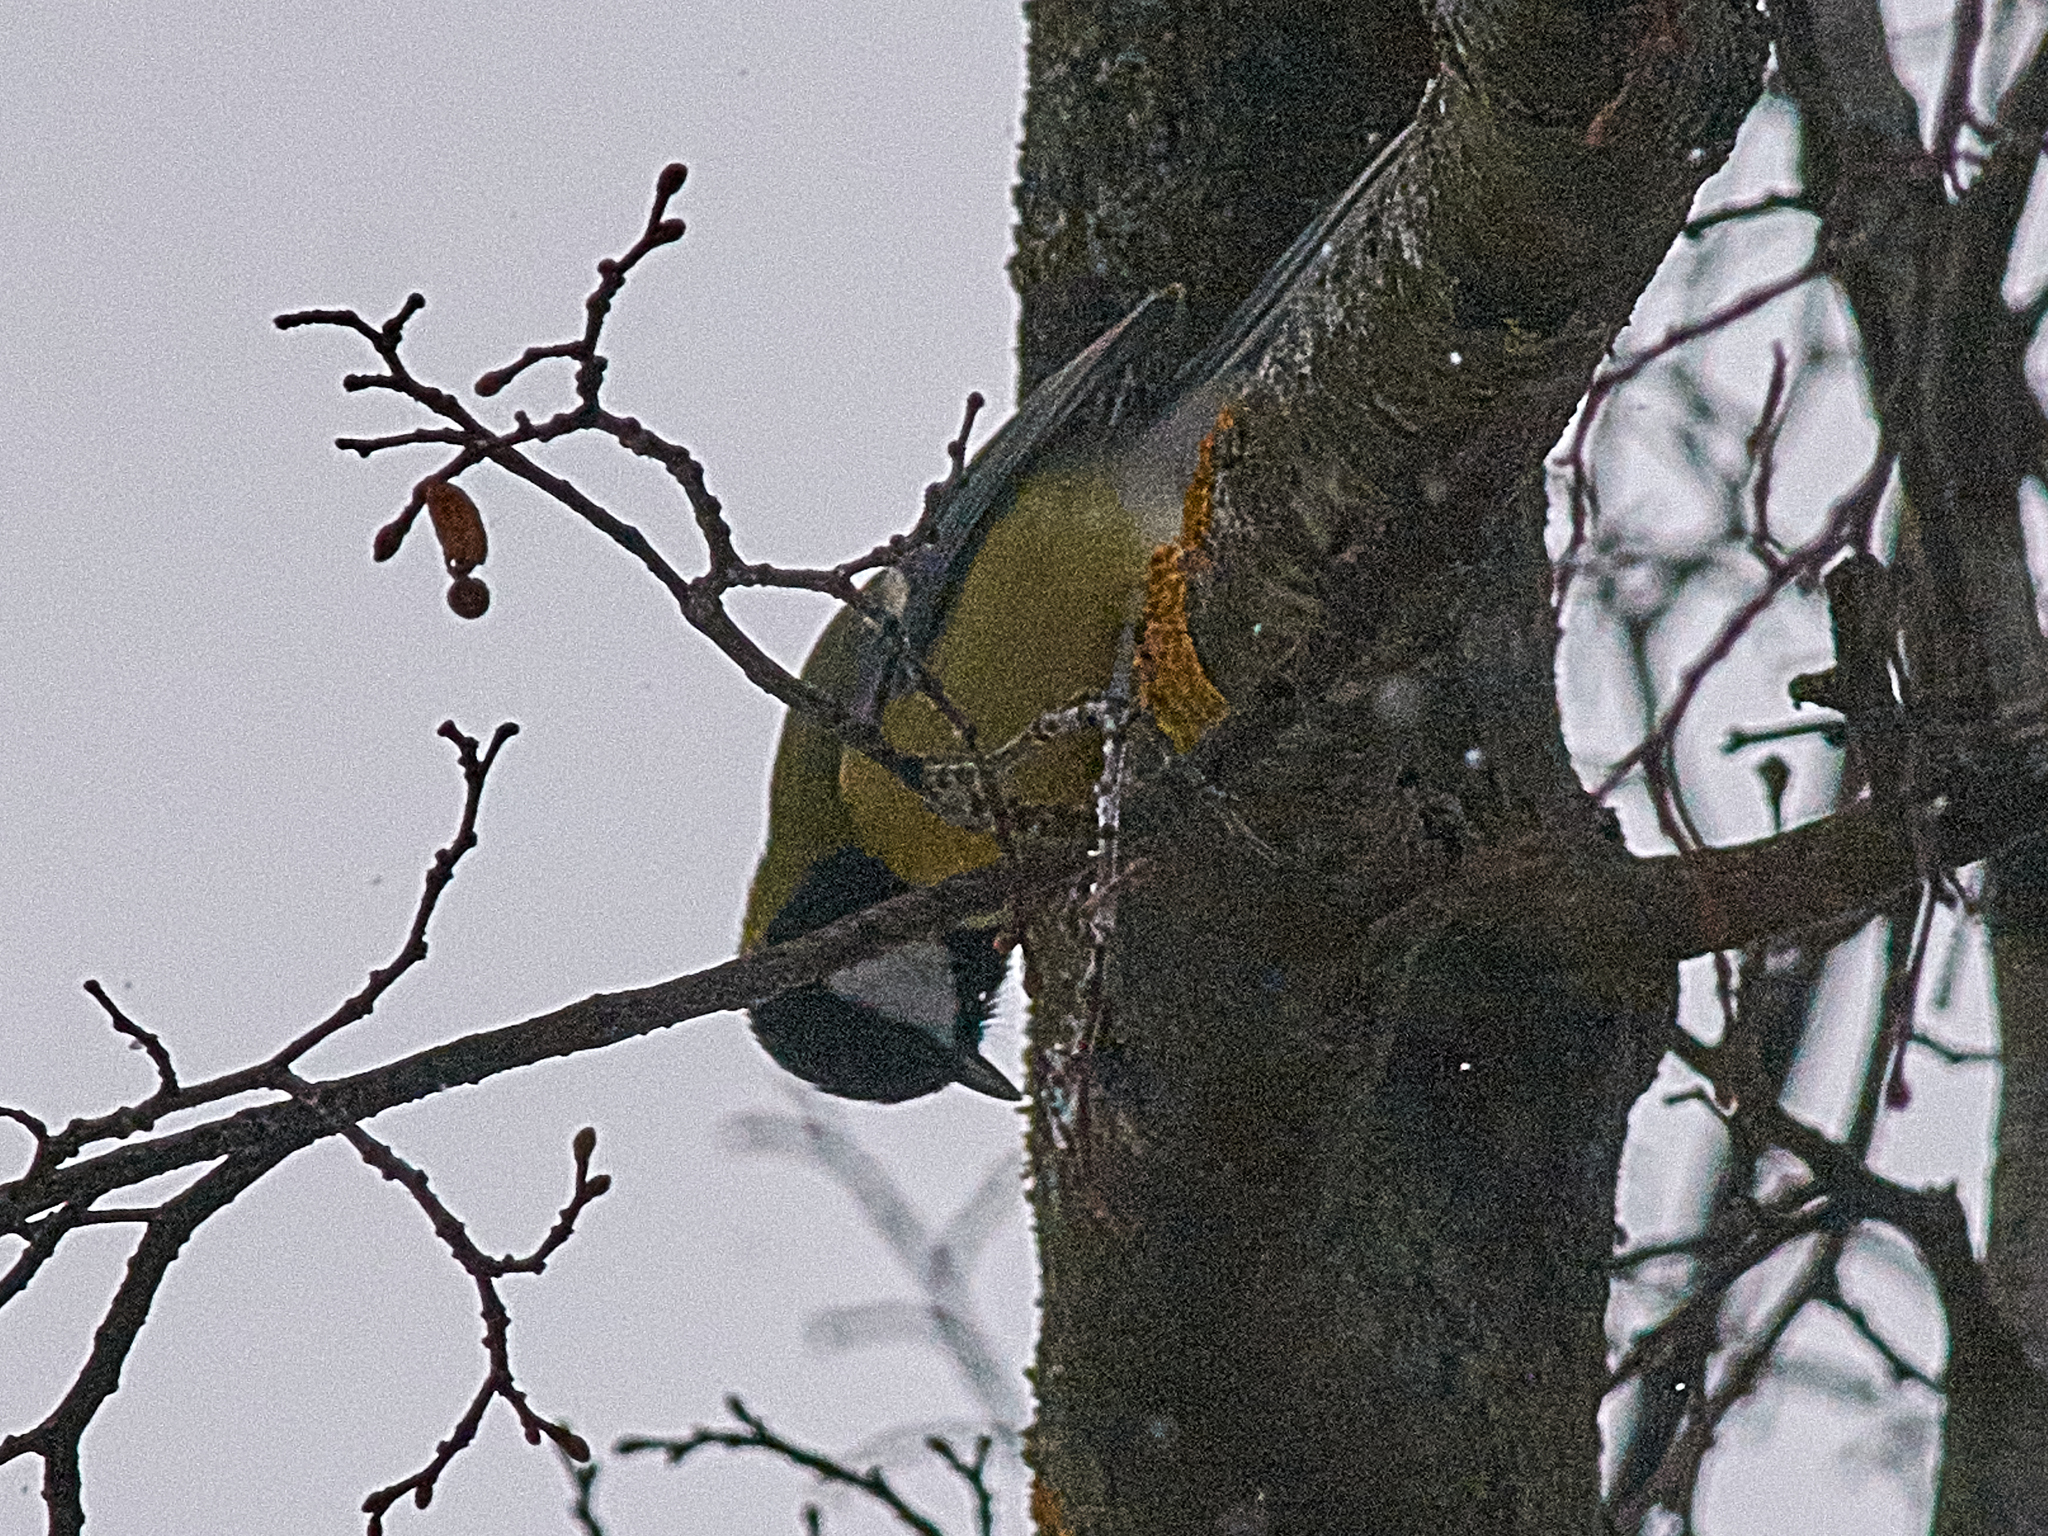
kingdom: Animalia
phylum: Chordata
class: Aves
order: Passeriformes
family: Paridae
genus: Parus
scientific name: Parus major
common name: Great tit
